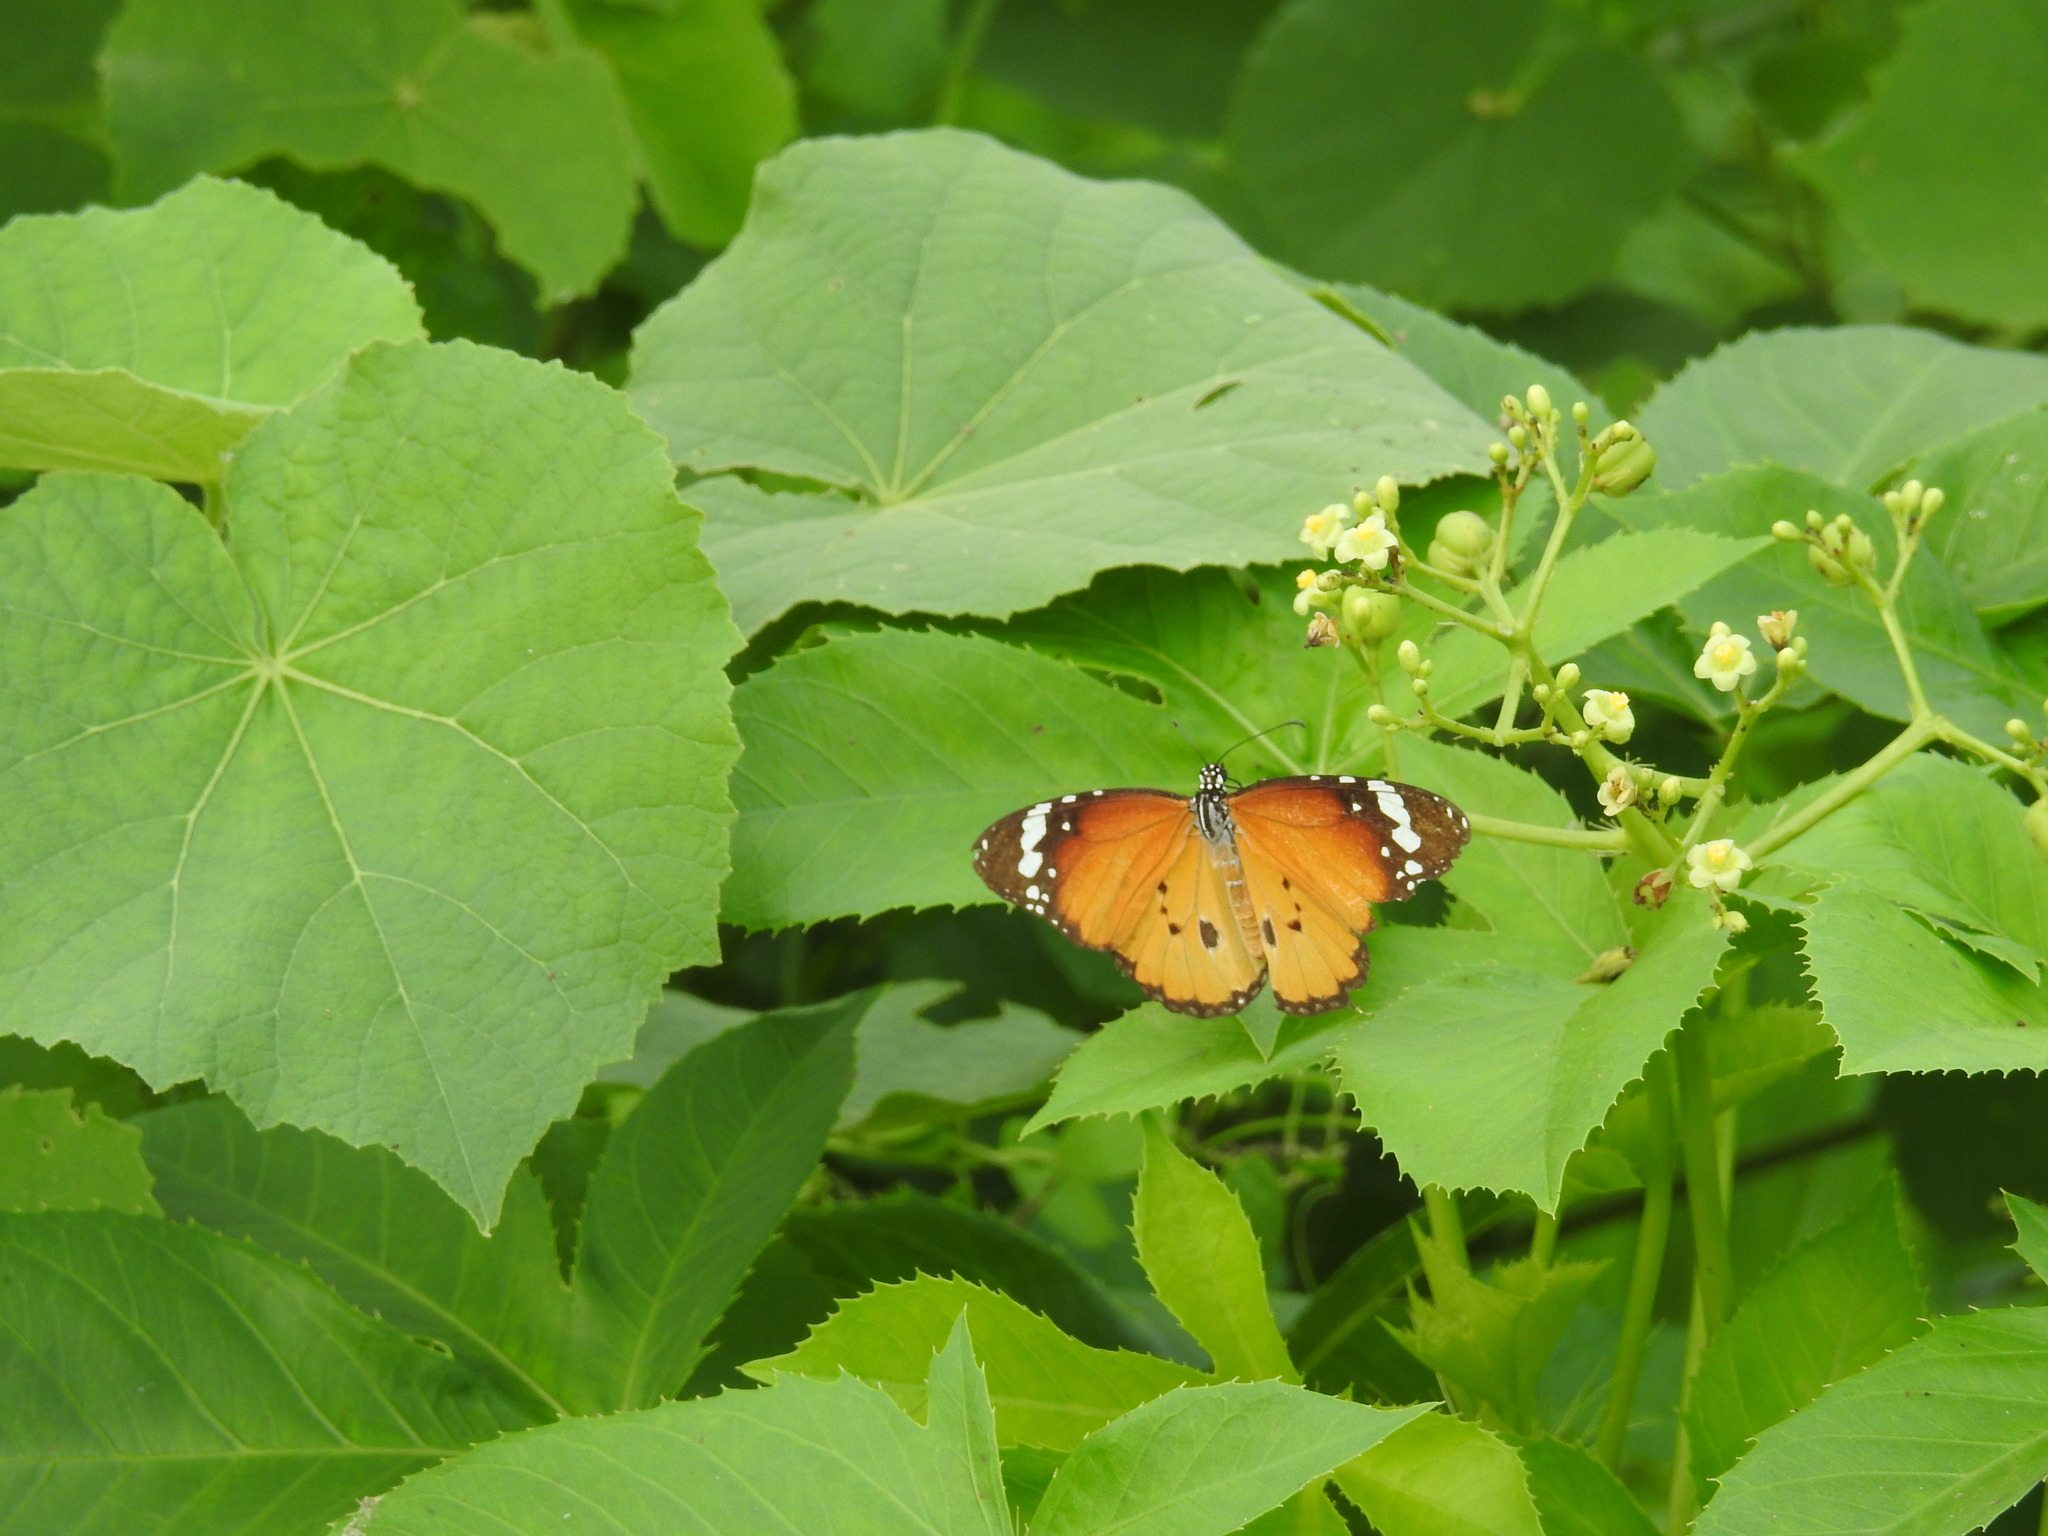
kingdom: Animalia
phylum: Arthropoda
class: Insecta
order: Lepidoptera
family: Nymphalidae
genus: Danaus
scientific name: Danaus chrysippus
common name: Plain tiger
